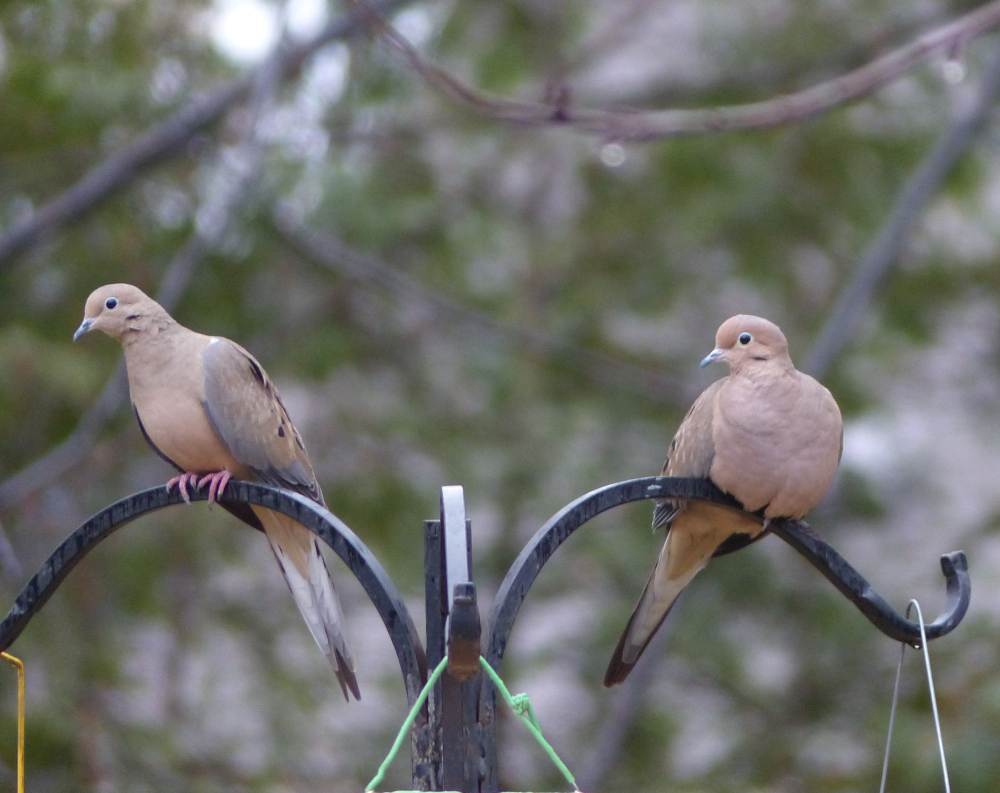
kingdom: Animalia
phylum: Chordata
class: Aves
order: Columbiformes
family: Columbidae
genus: Zenaida
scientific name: Zenaida macroura
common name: Mourning dove
